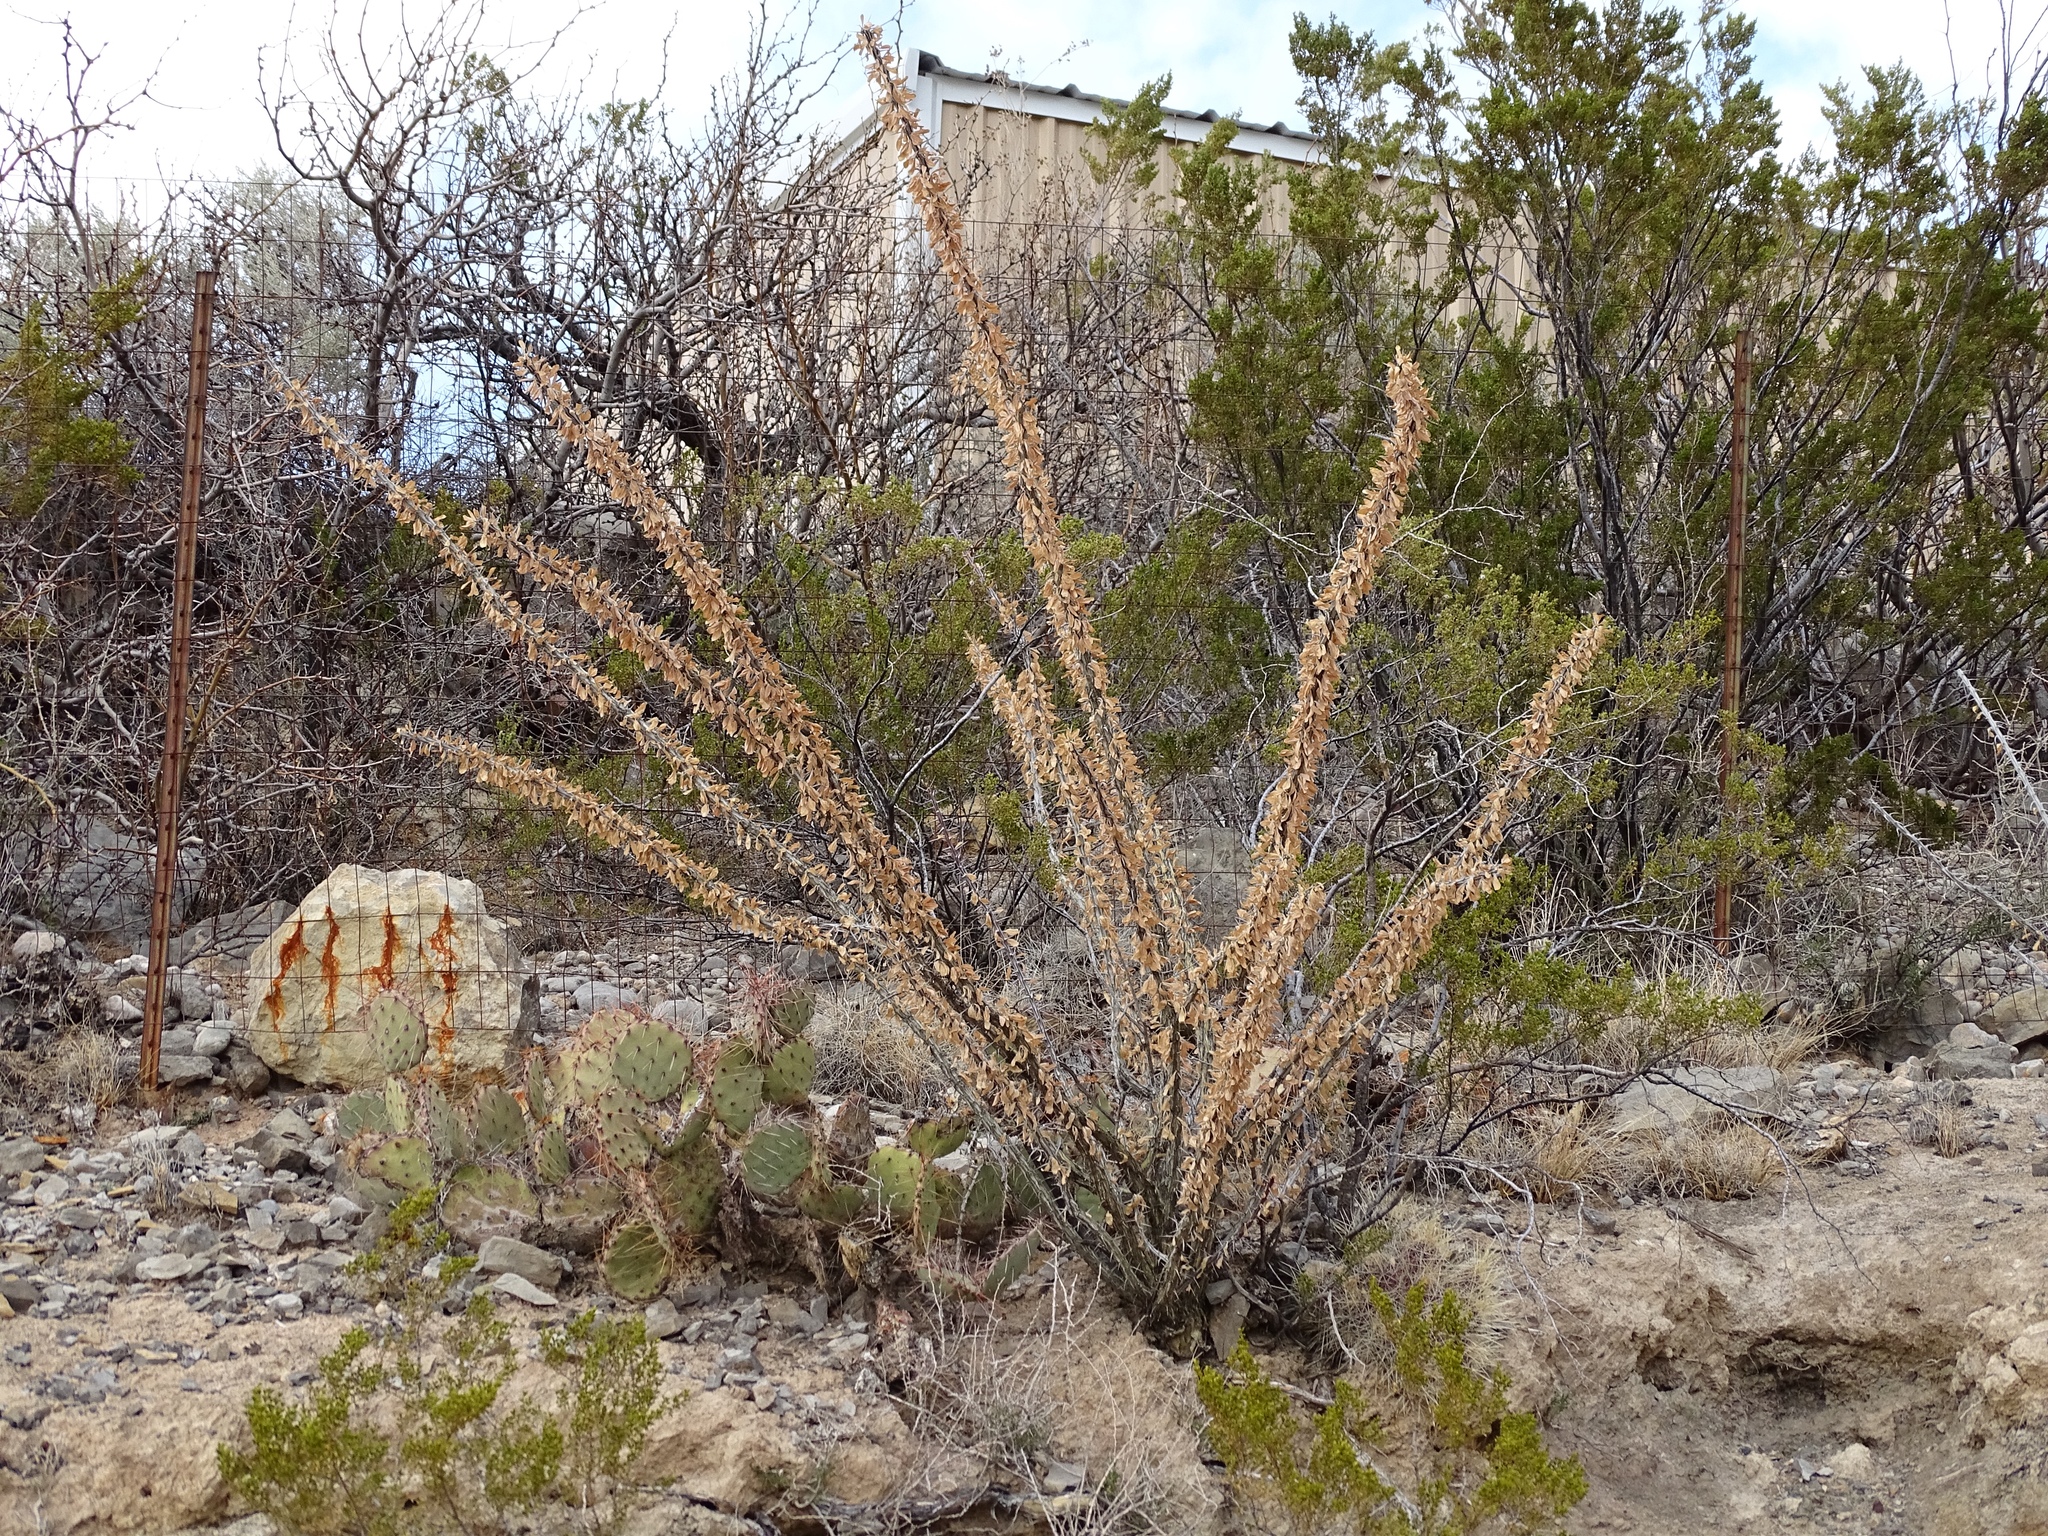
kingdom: Plantae
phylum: Tracheophyta
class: Magnoliopsida
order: Ericales
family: Fouquieriaceae
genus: Fouquieria
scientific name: Fouquieria splendens
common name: Vine-cactus
